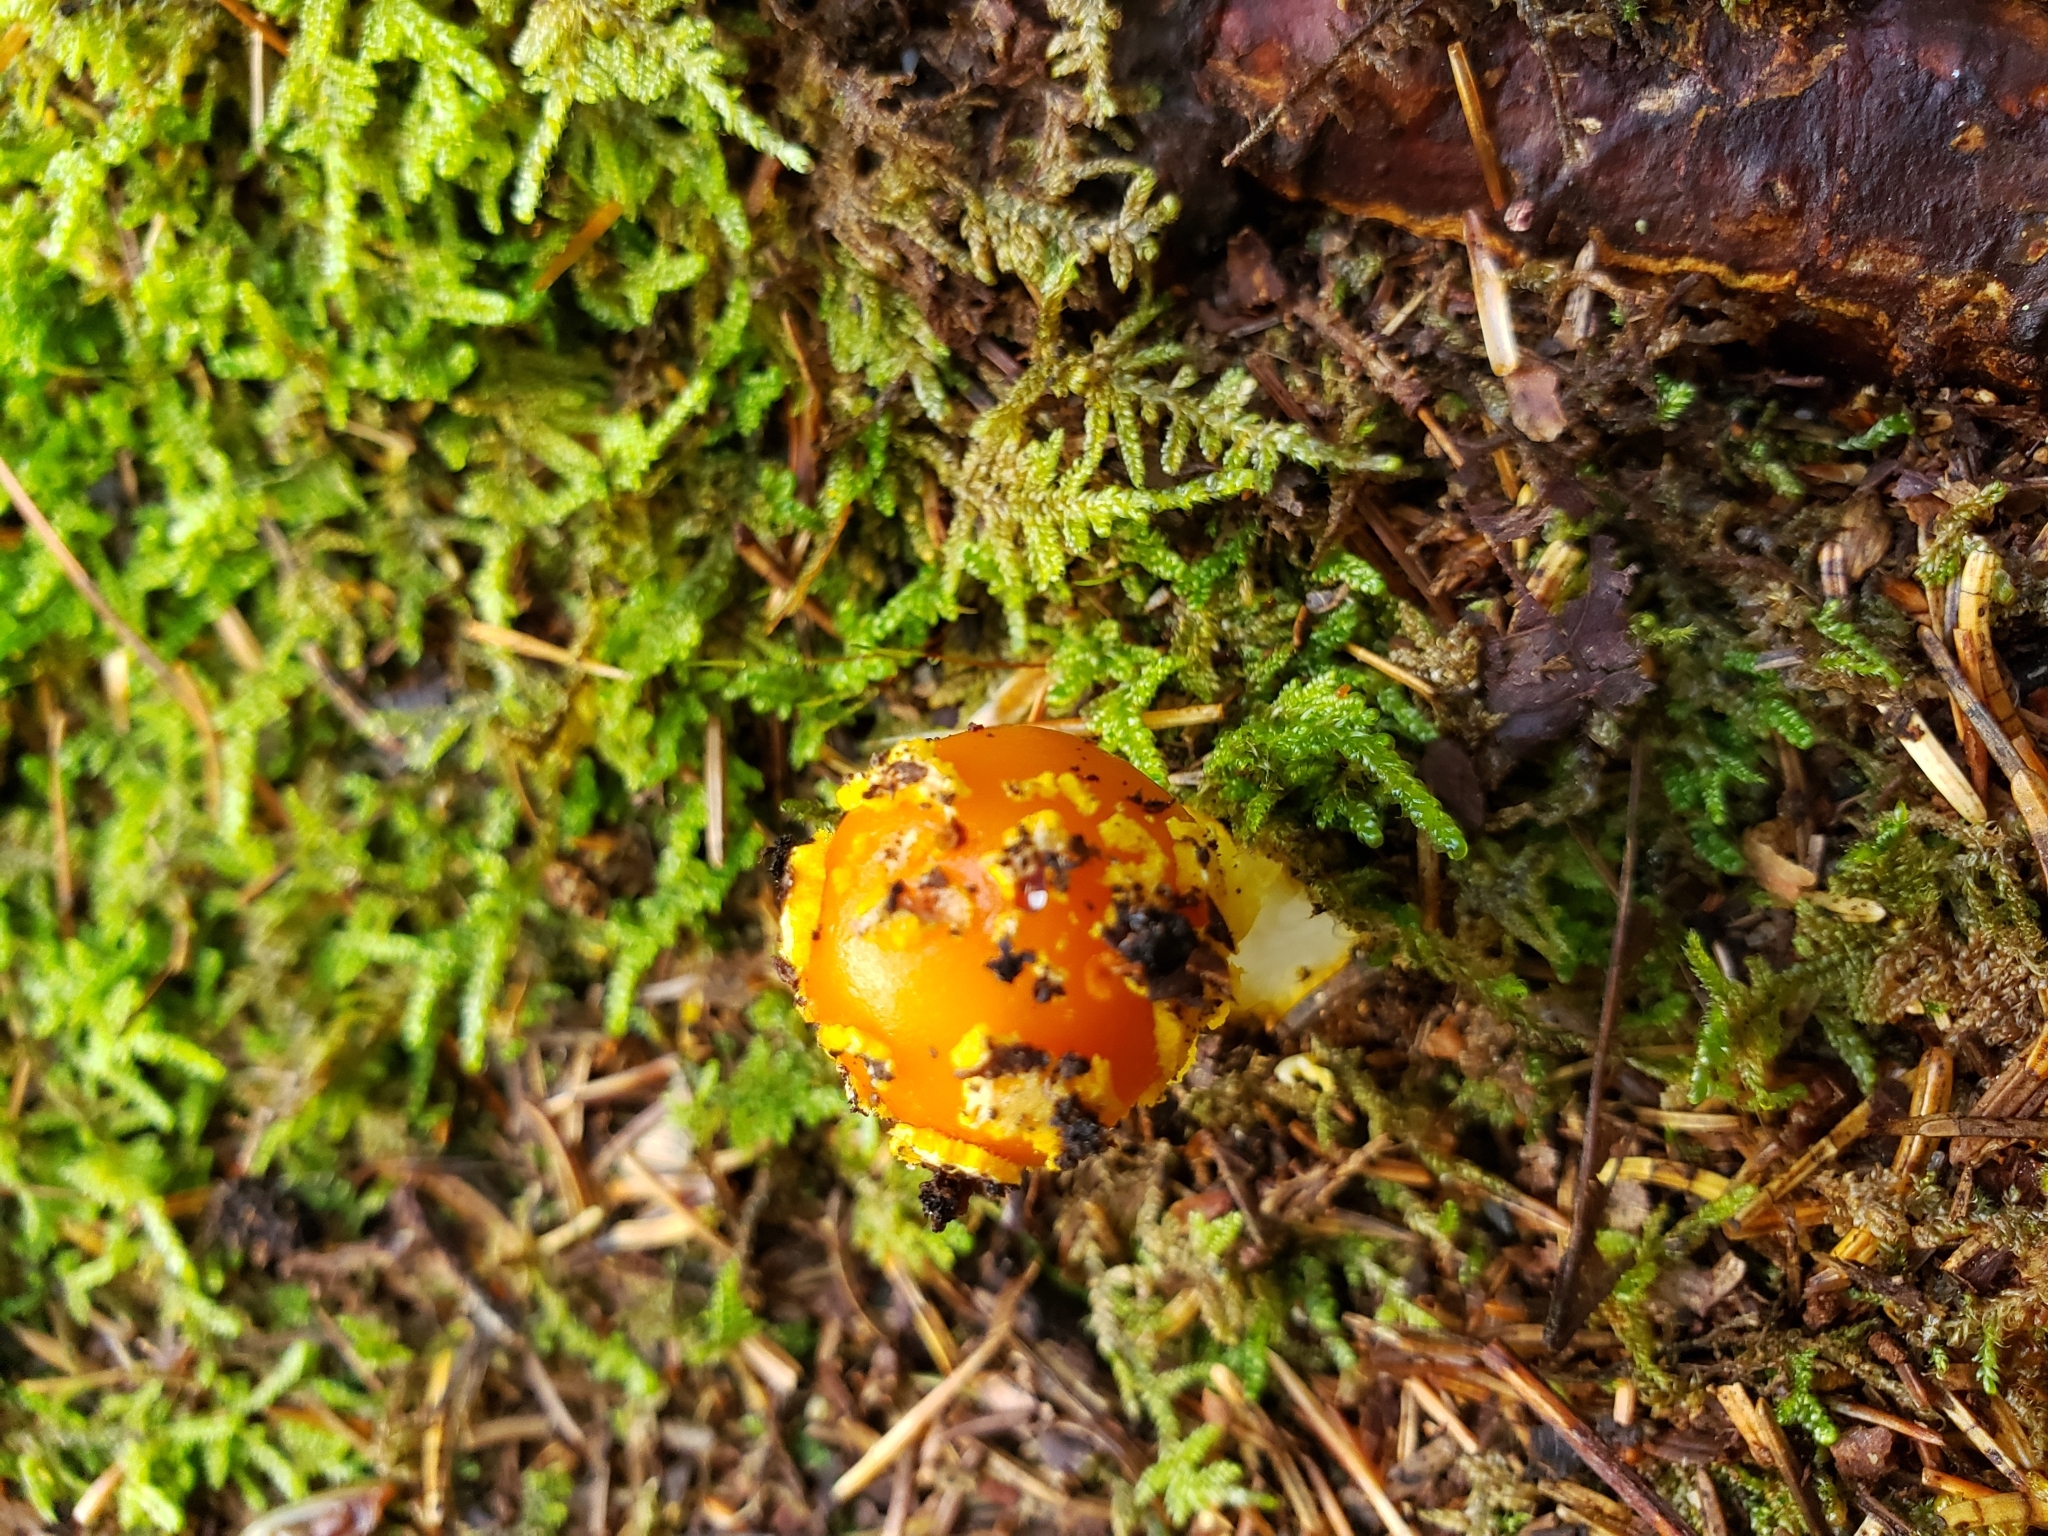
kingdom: Fungi
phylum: Basidiomycota
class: Agaricomycetes
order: Agaricales
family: Amanitaceae
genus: Amanita
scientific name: Amanita flavoconia
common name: Yellow patches
